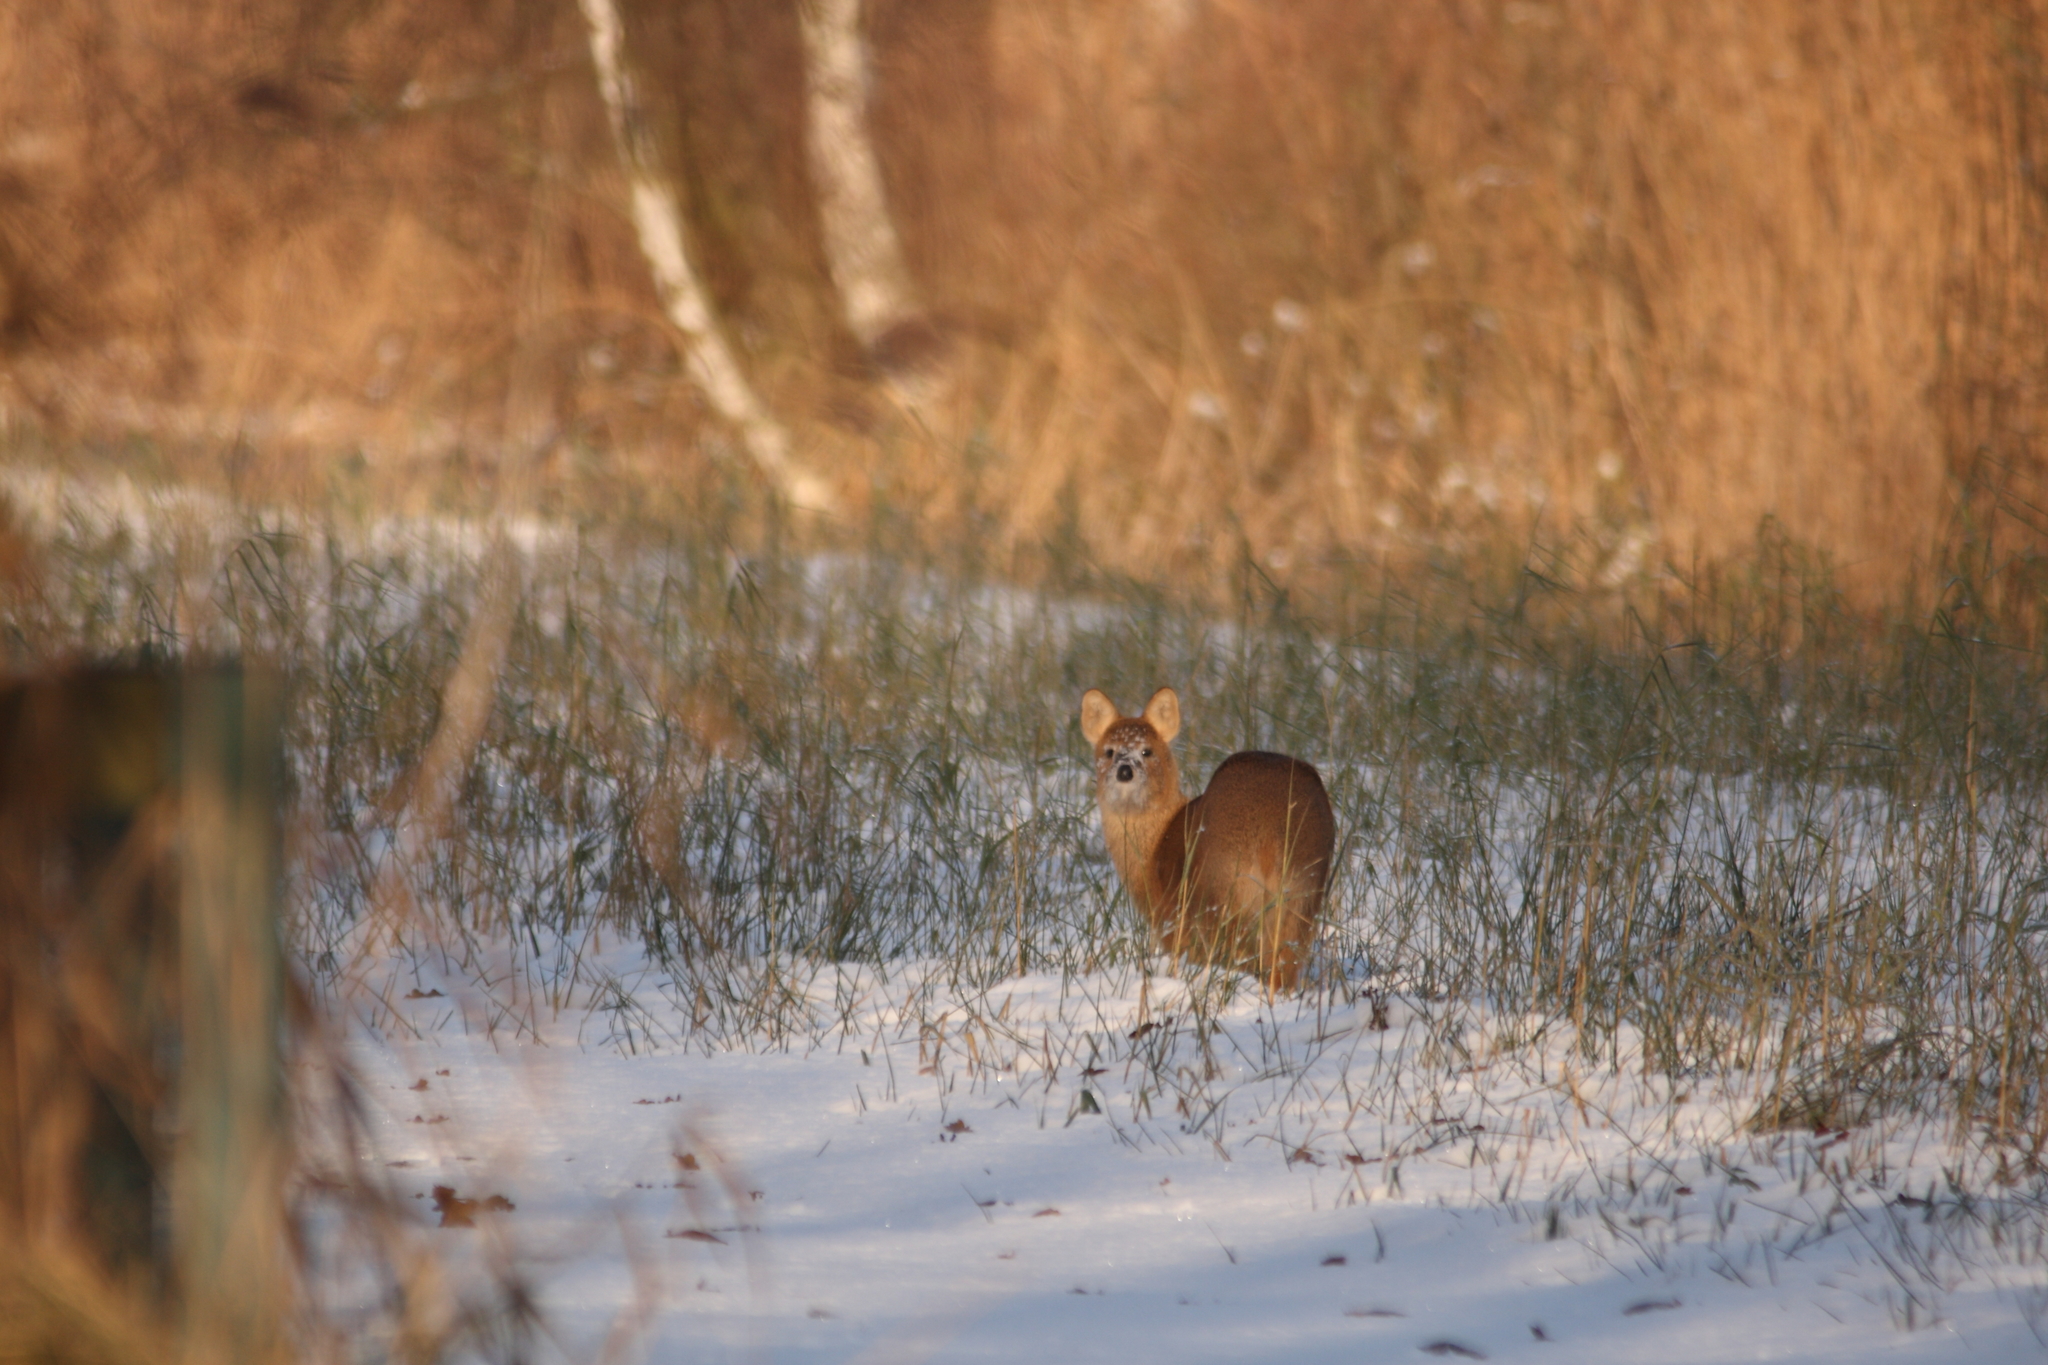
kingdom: Animalia
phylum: Chordata
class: Mammalia
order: Artiodactyla
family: Cervidae
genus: Hydropotes
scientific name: Hydropotes inermis
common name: Chinese water deer
